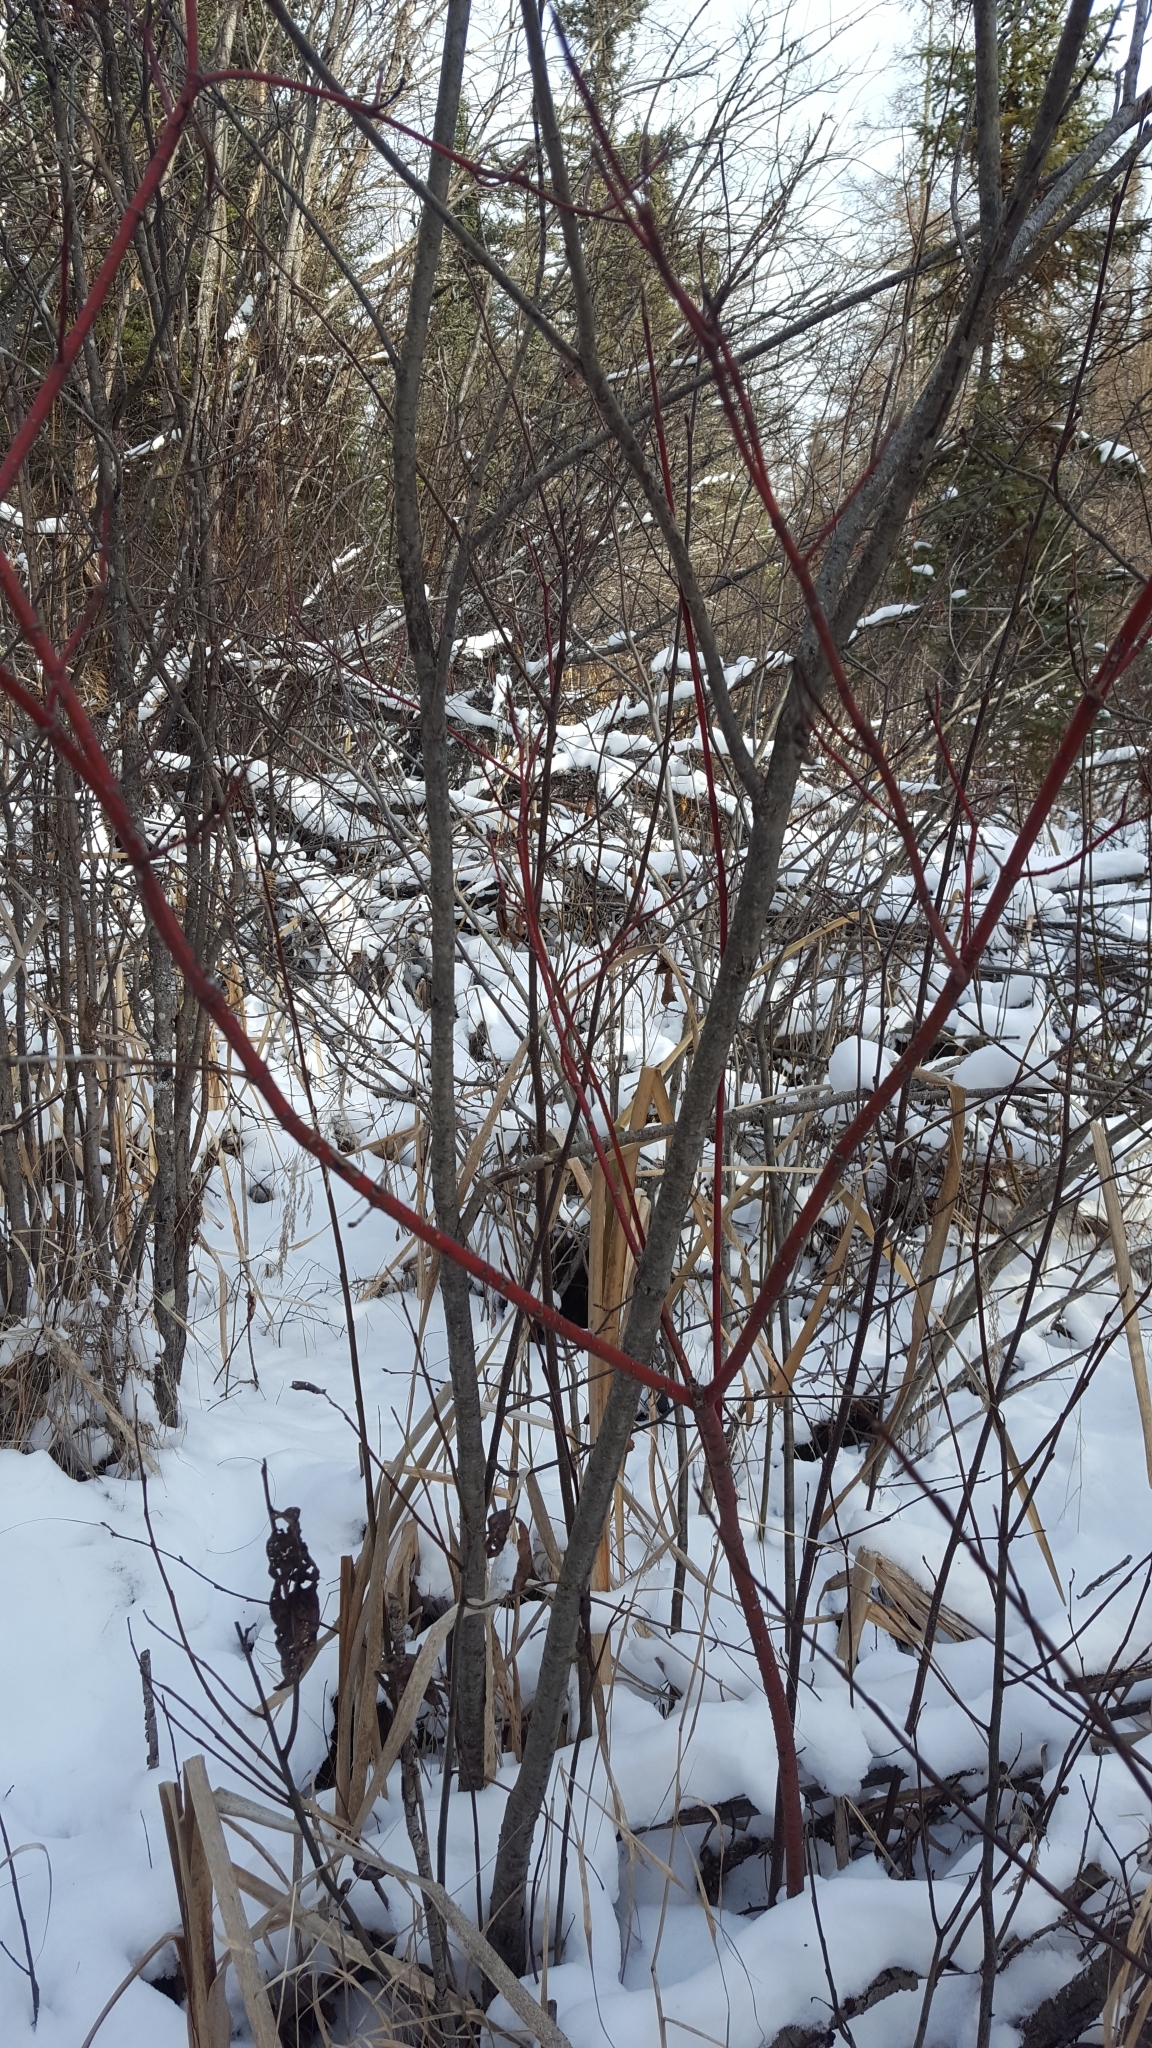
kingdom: Plantae
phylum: Tracheophyta
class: Magnoliopsida
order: Cornales
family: Cornaceae
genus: Cornus
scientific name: Cornus sericea
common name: Red-osier dogwood
